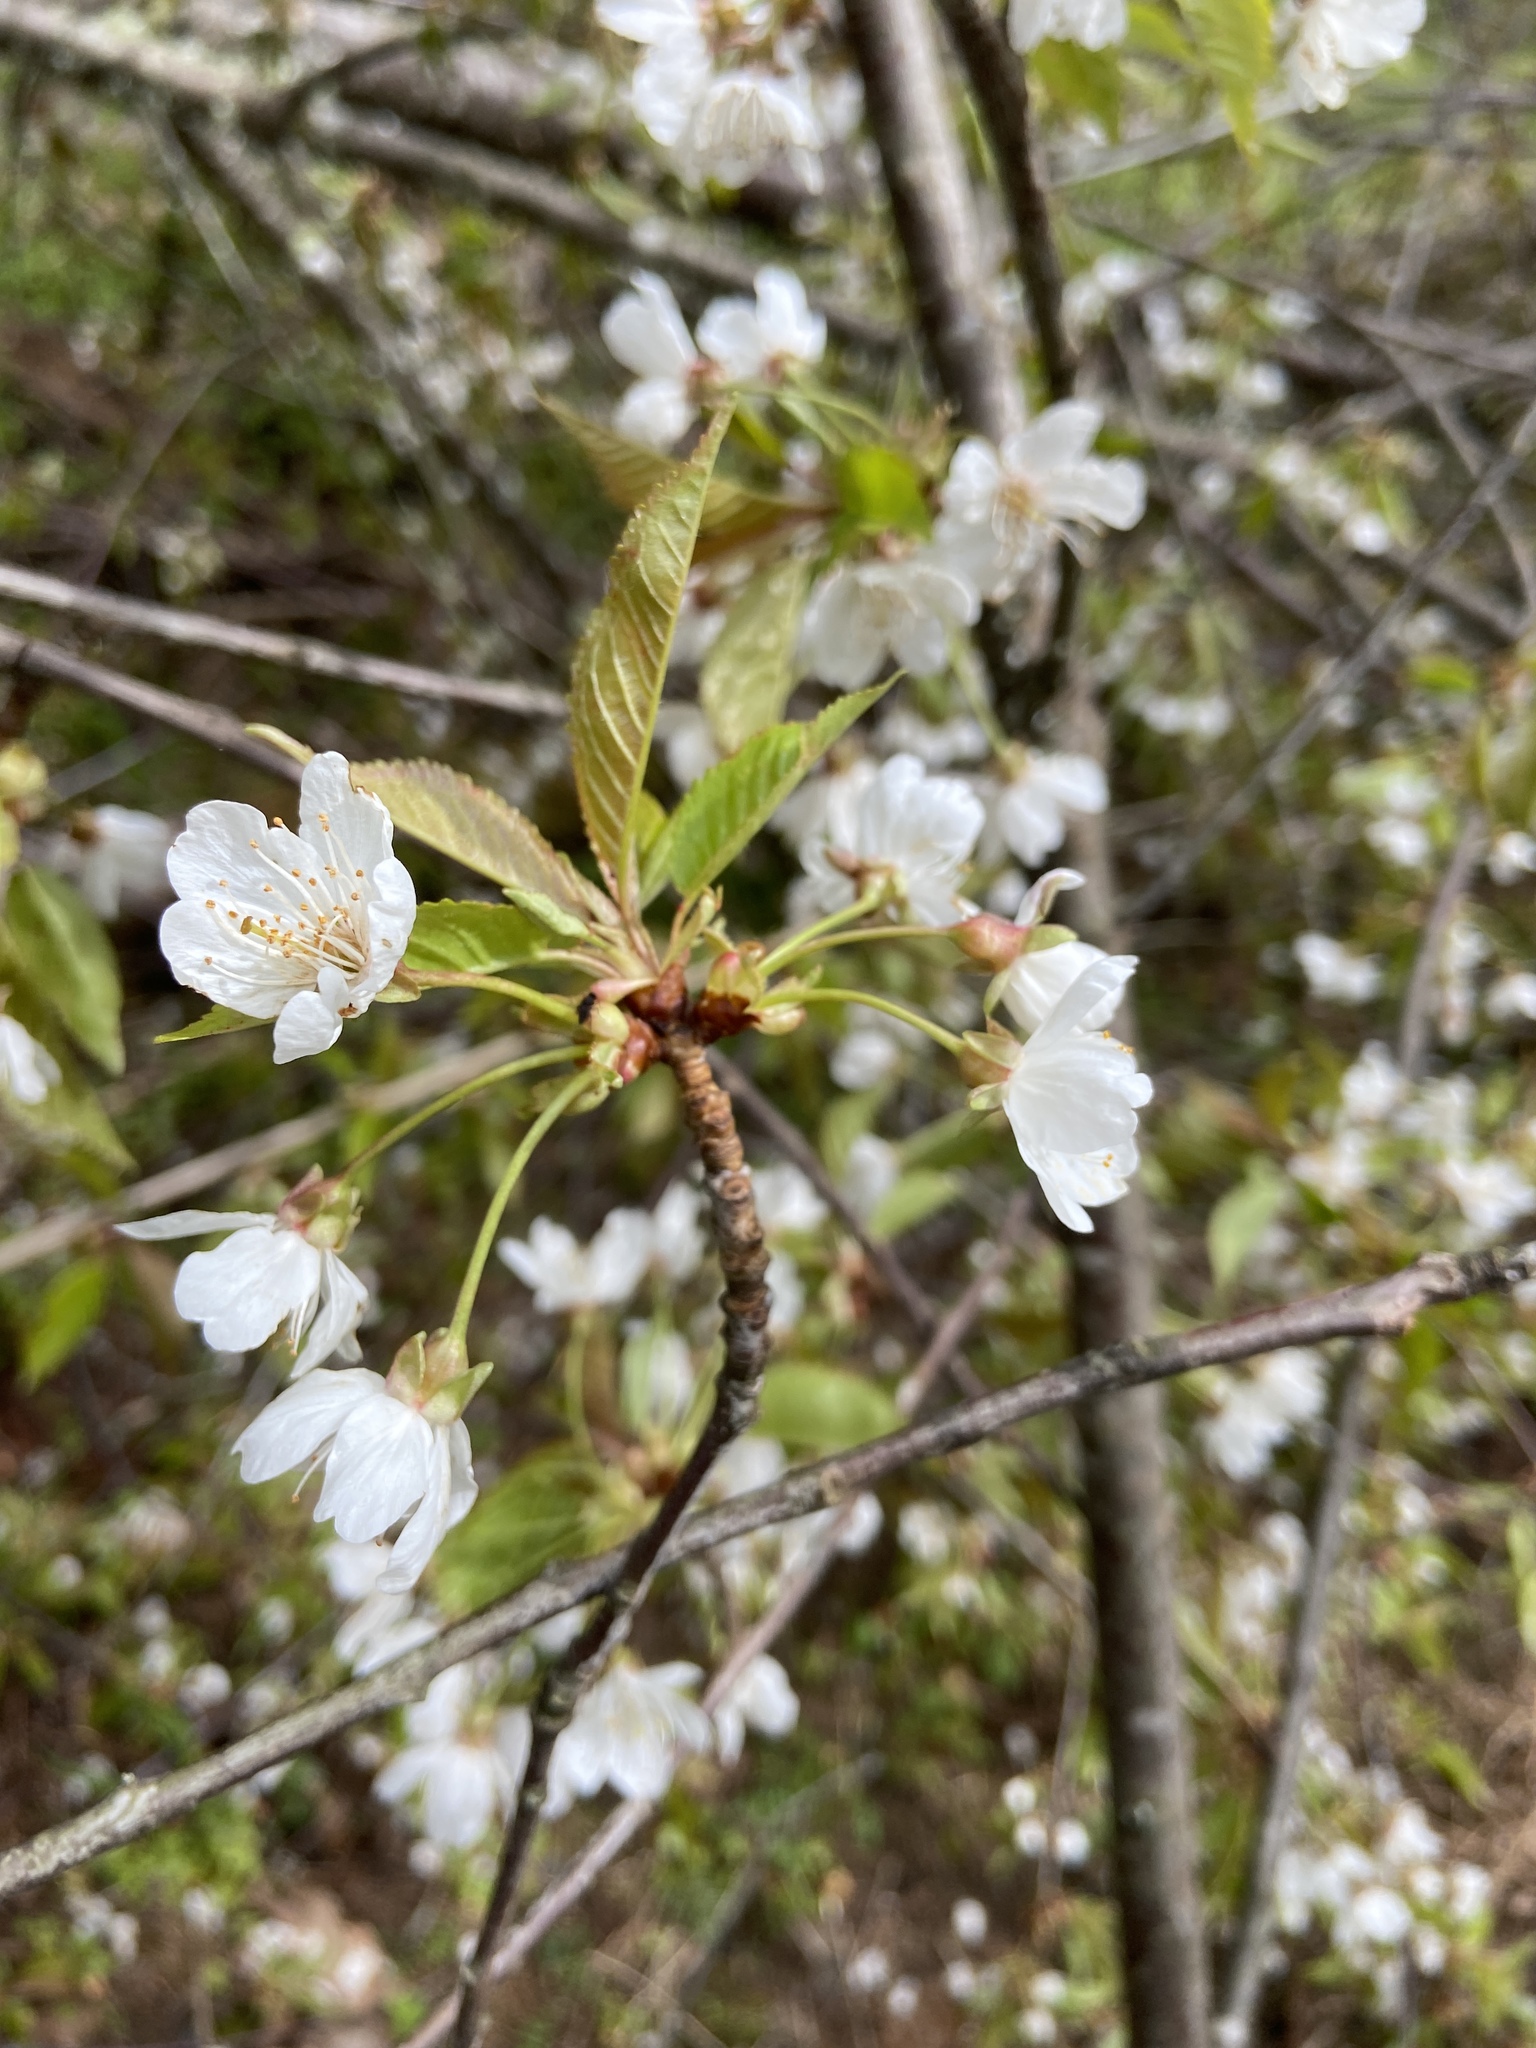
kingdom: Plantae
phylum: Tracheophyta
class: Magnoliopsida
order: Rosales
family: Rosaceae
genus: Prunus
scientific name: Prunus avium
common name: Sweet cherry
